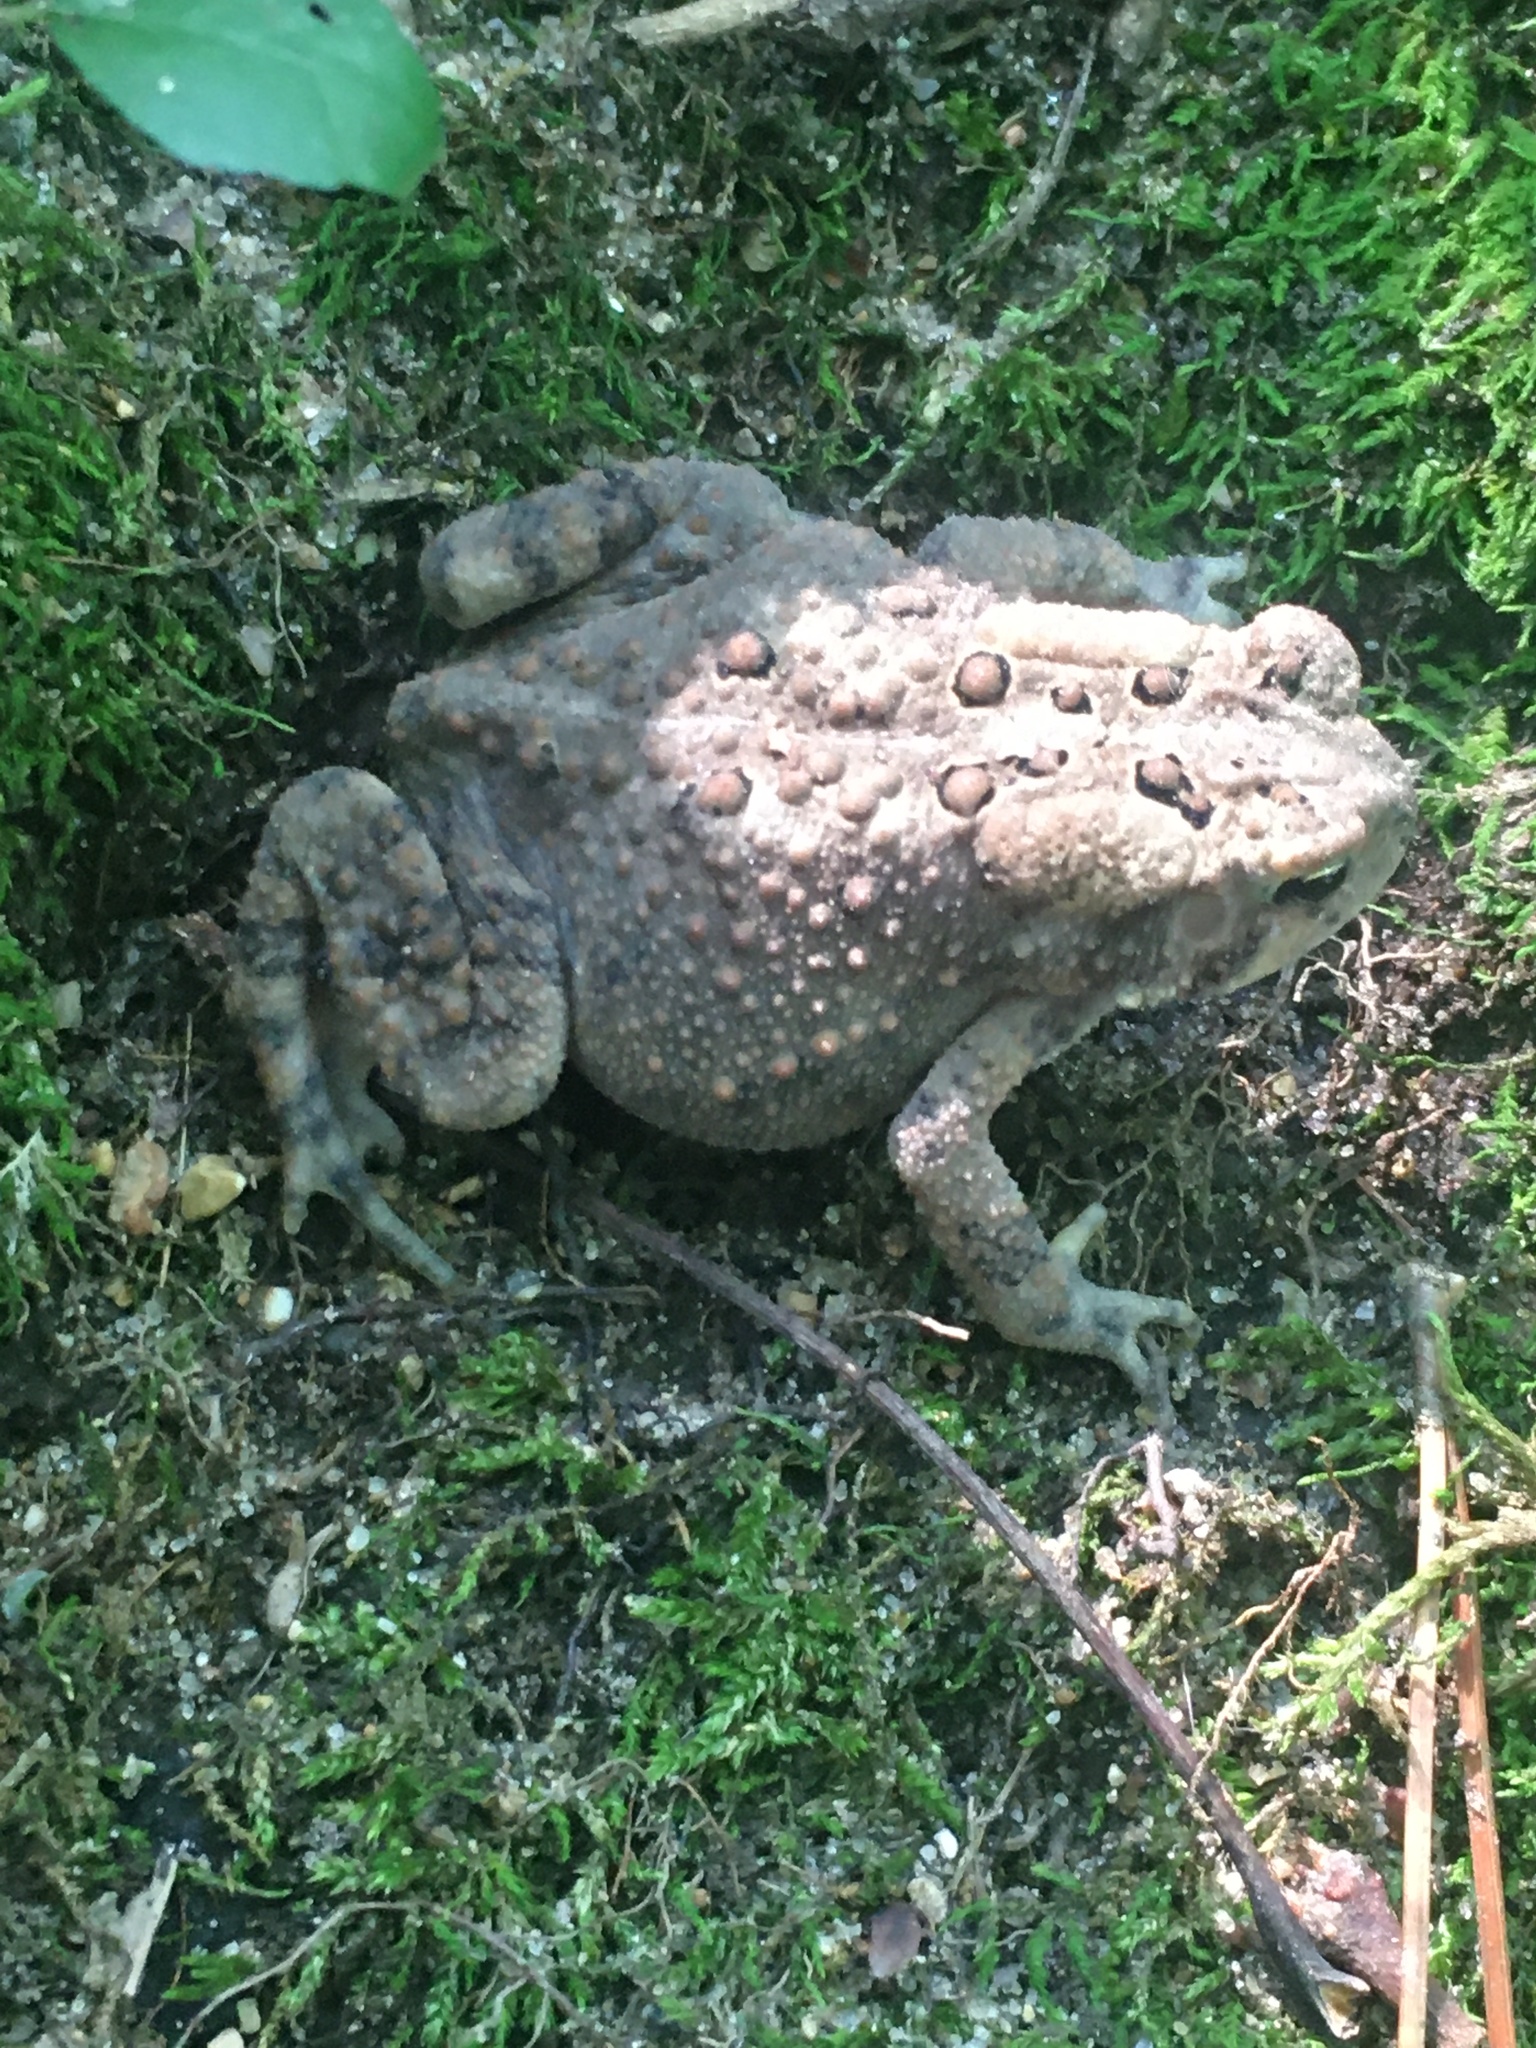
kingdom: Animalia
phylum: Chordata
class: Amphibia
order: Anura
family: Bufonidae
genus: Anaxyrus
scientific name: Anaxyrus americanus
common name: American toad
